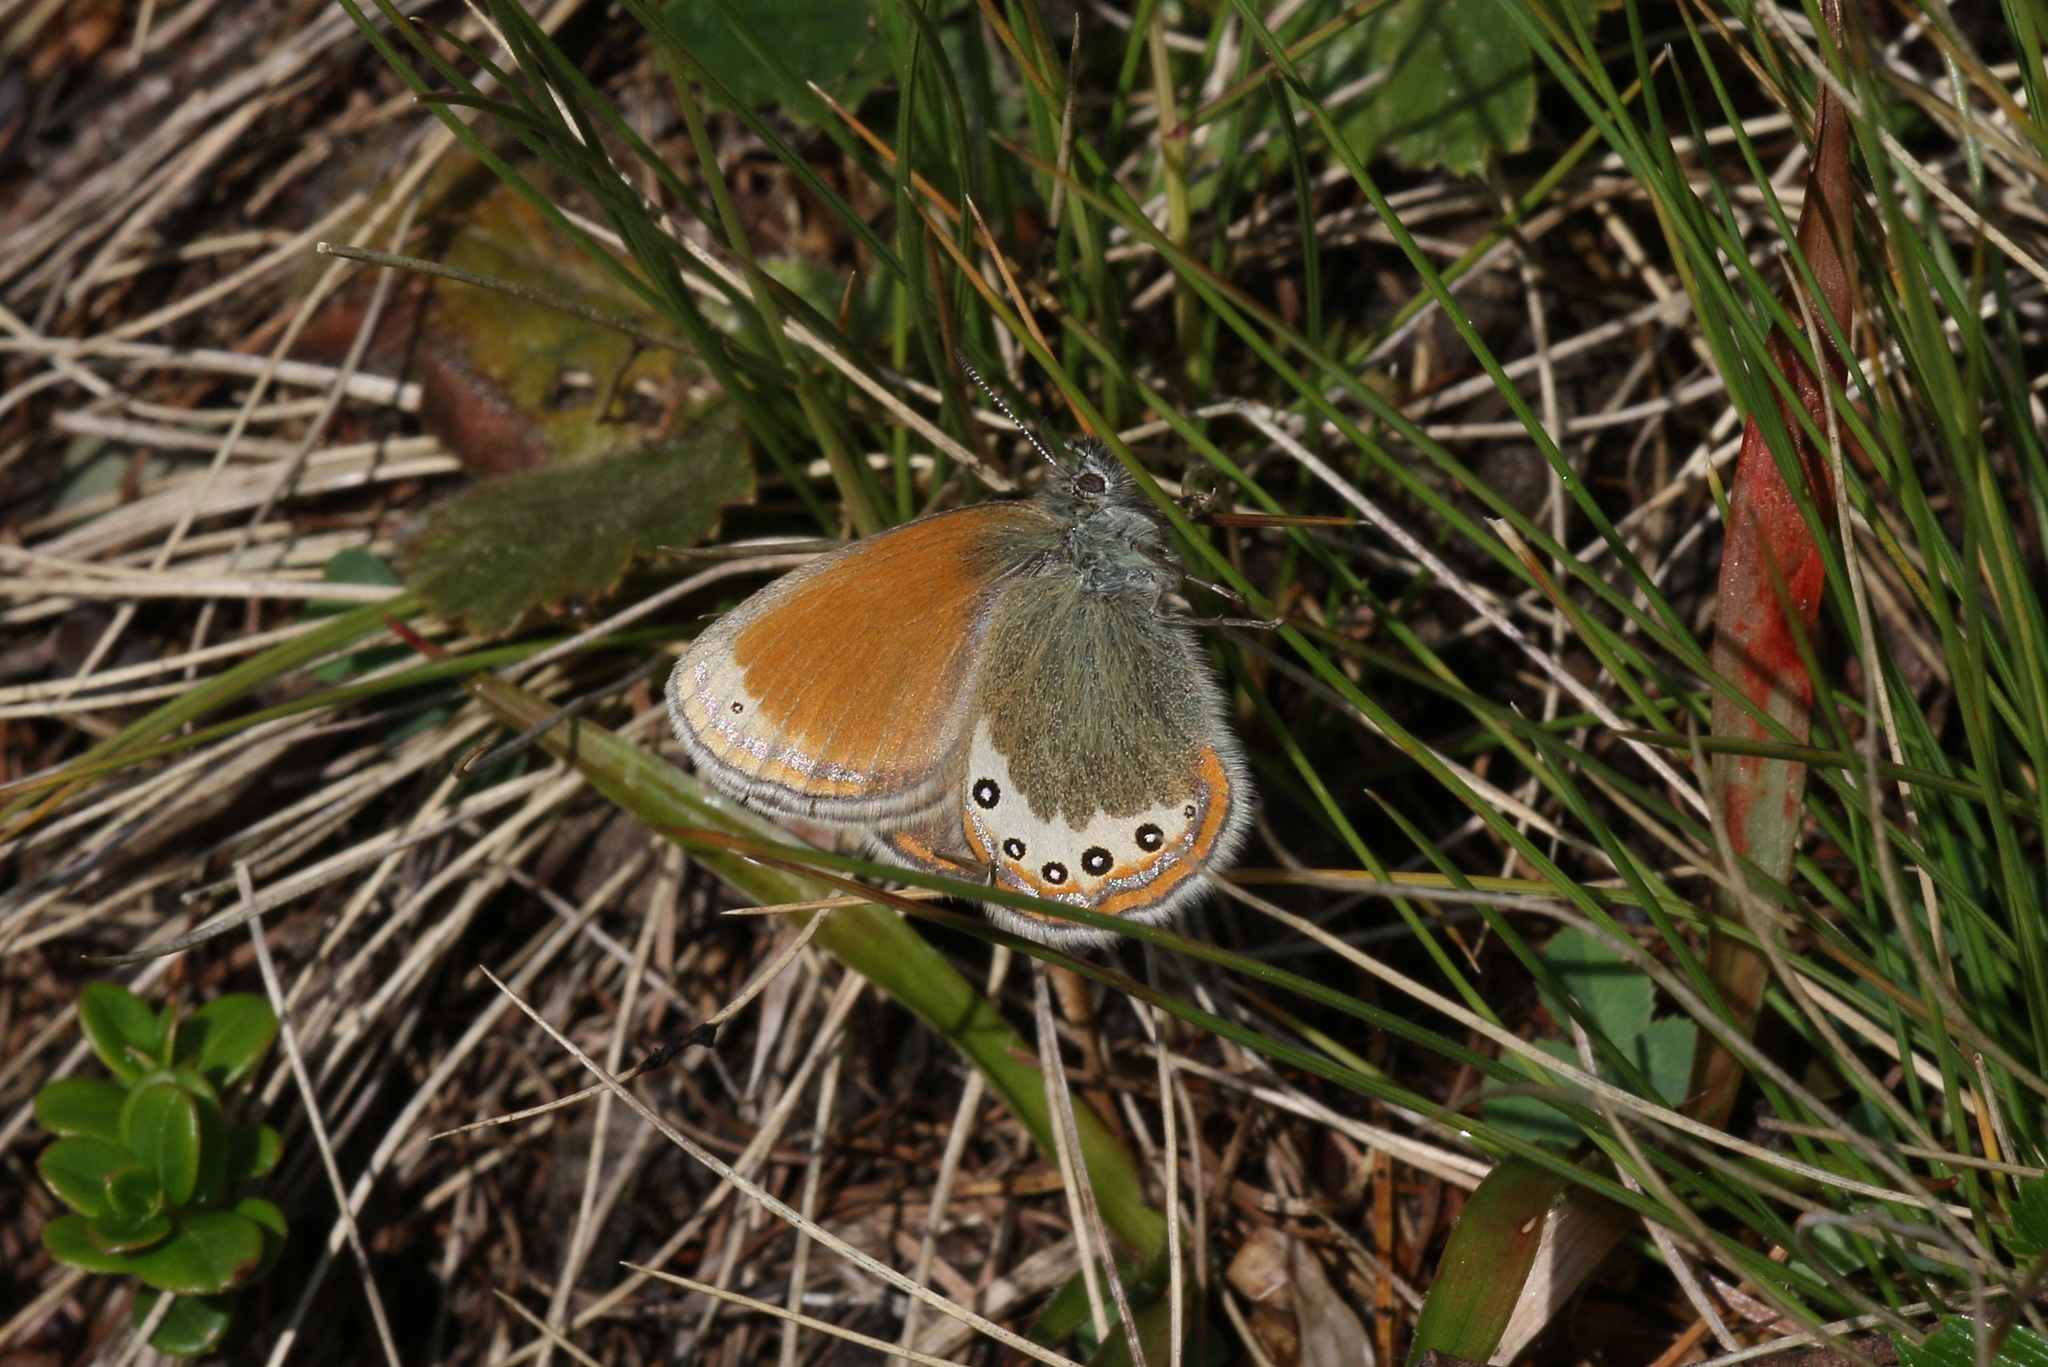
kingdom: Animalia
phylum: Arthropoda
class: Insecta
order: Lepidoptera
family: Nymphalidae
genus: Coenonympha
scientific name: Coenonympha
